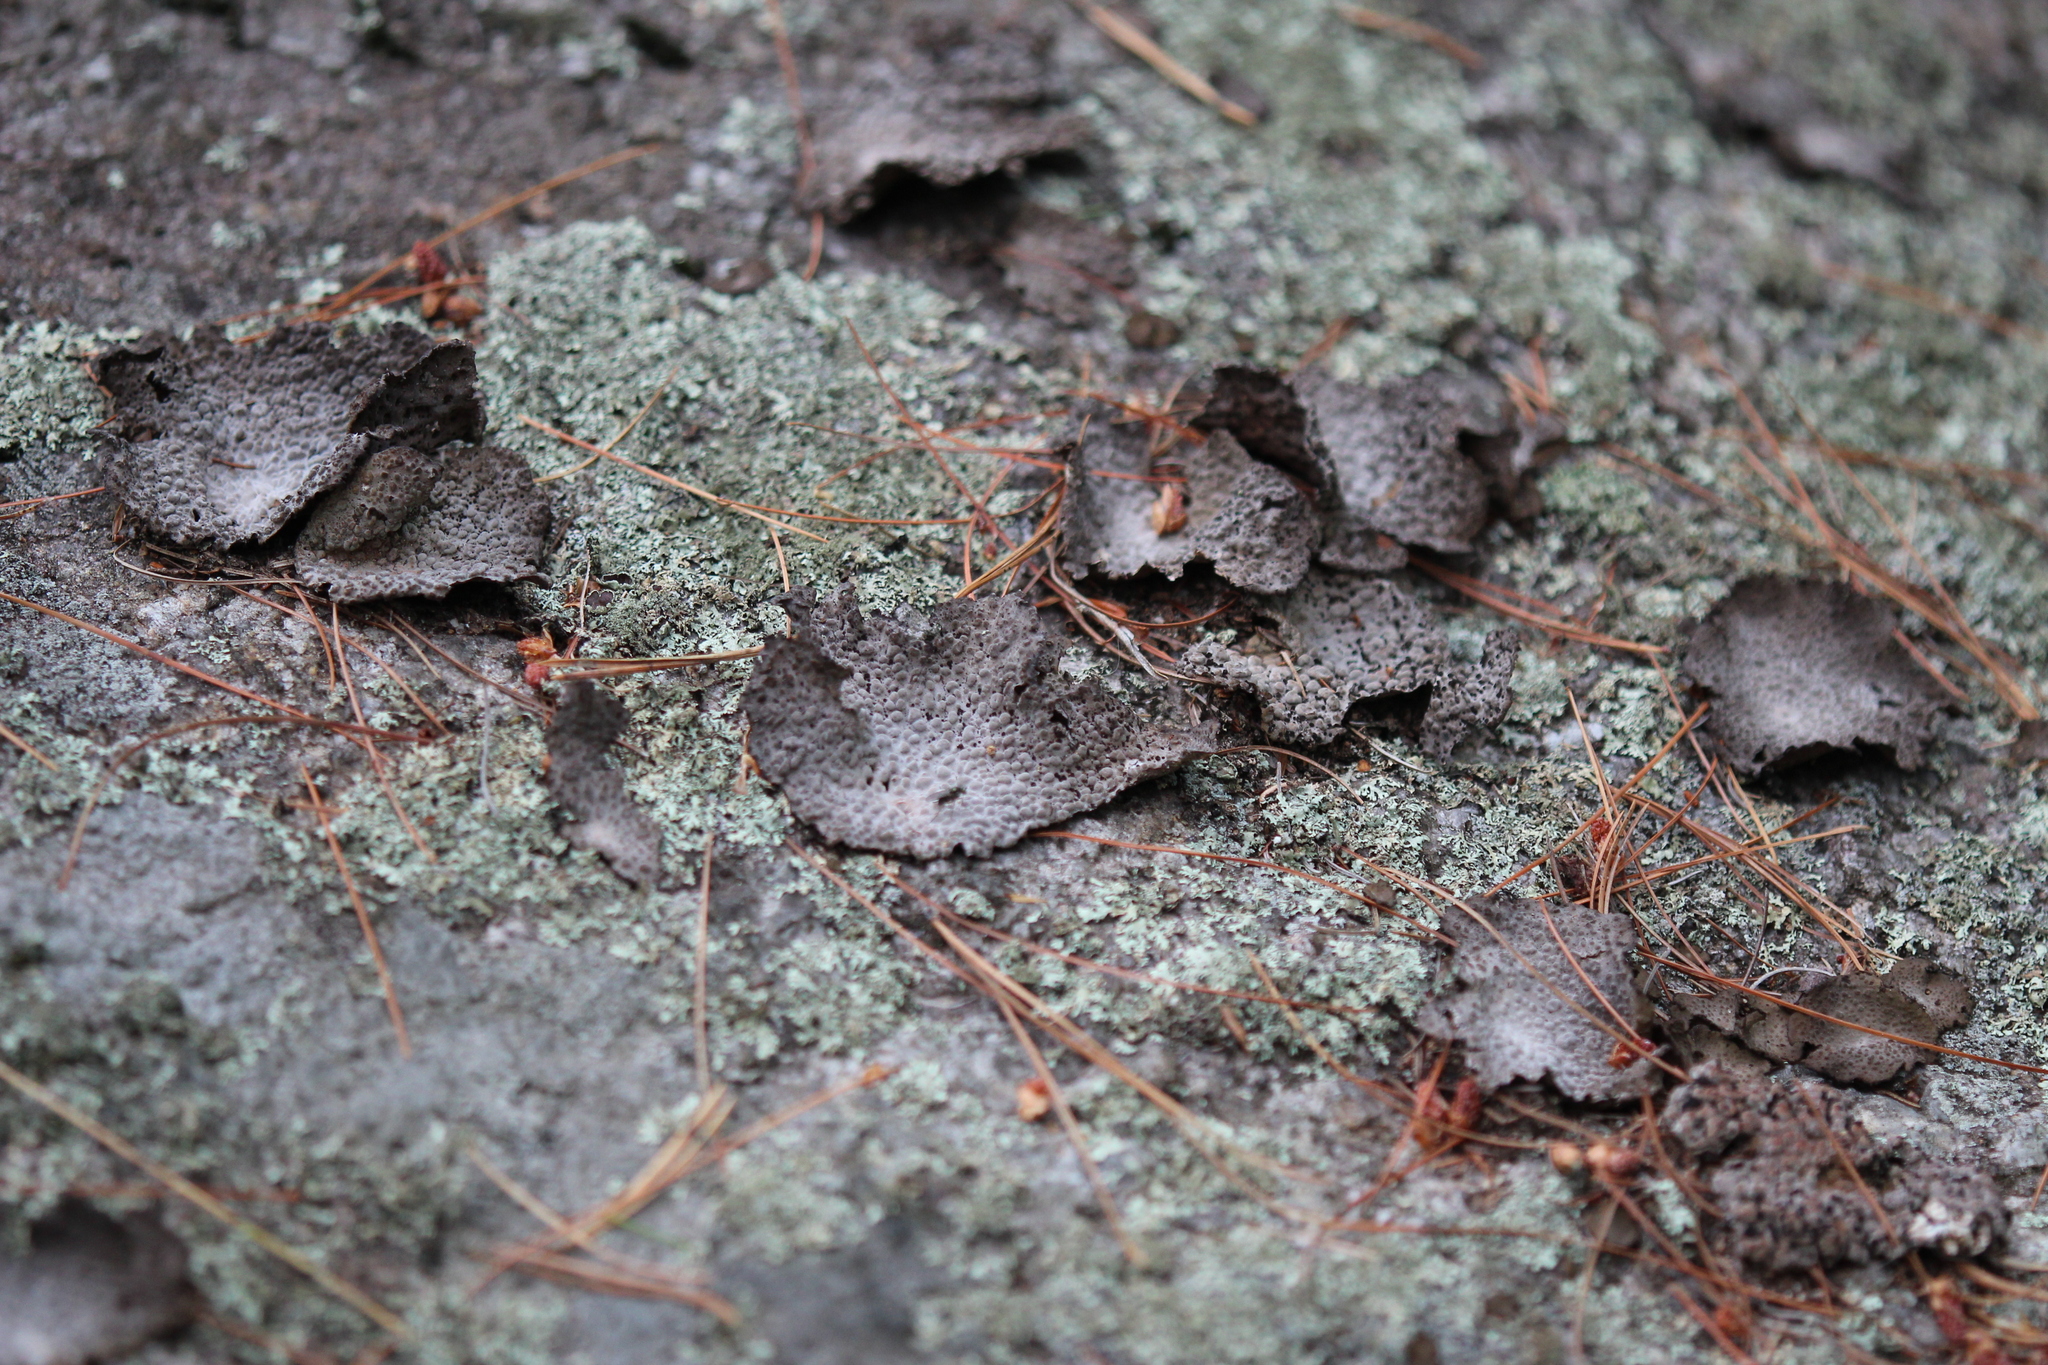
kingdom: Fungi
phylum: Ascomycota
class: Lecanoromycetes
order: Umbilicariales
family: Umbilicariaceae
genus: Lasallia
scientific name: Lasallia papulosa
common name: Common toadskin lichen
